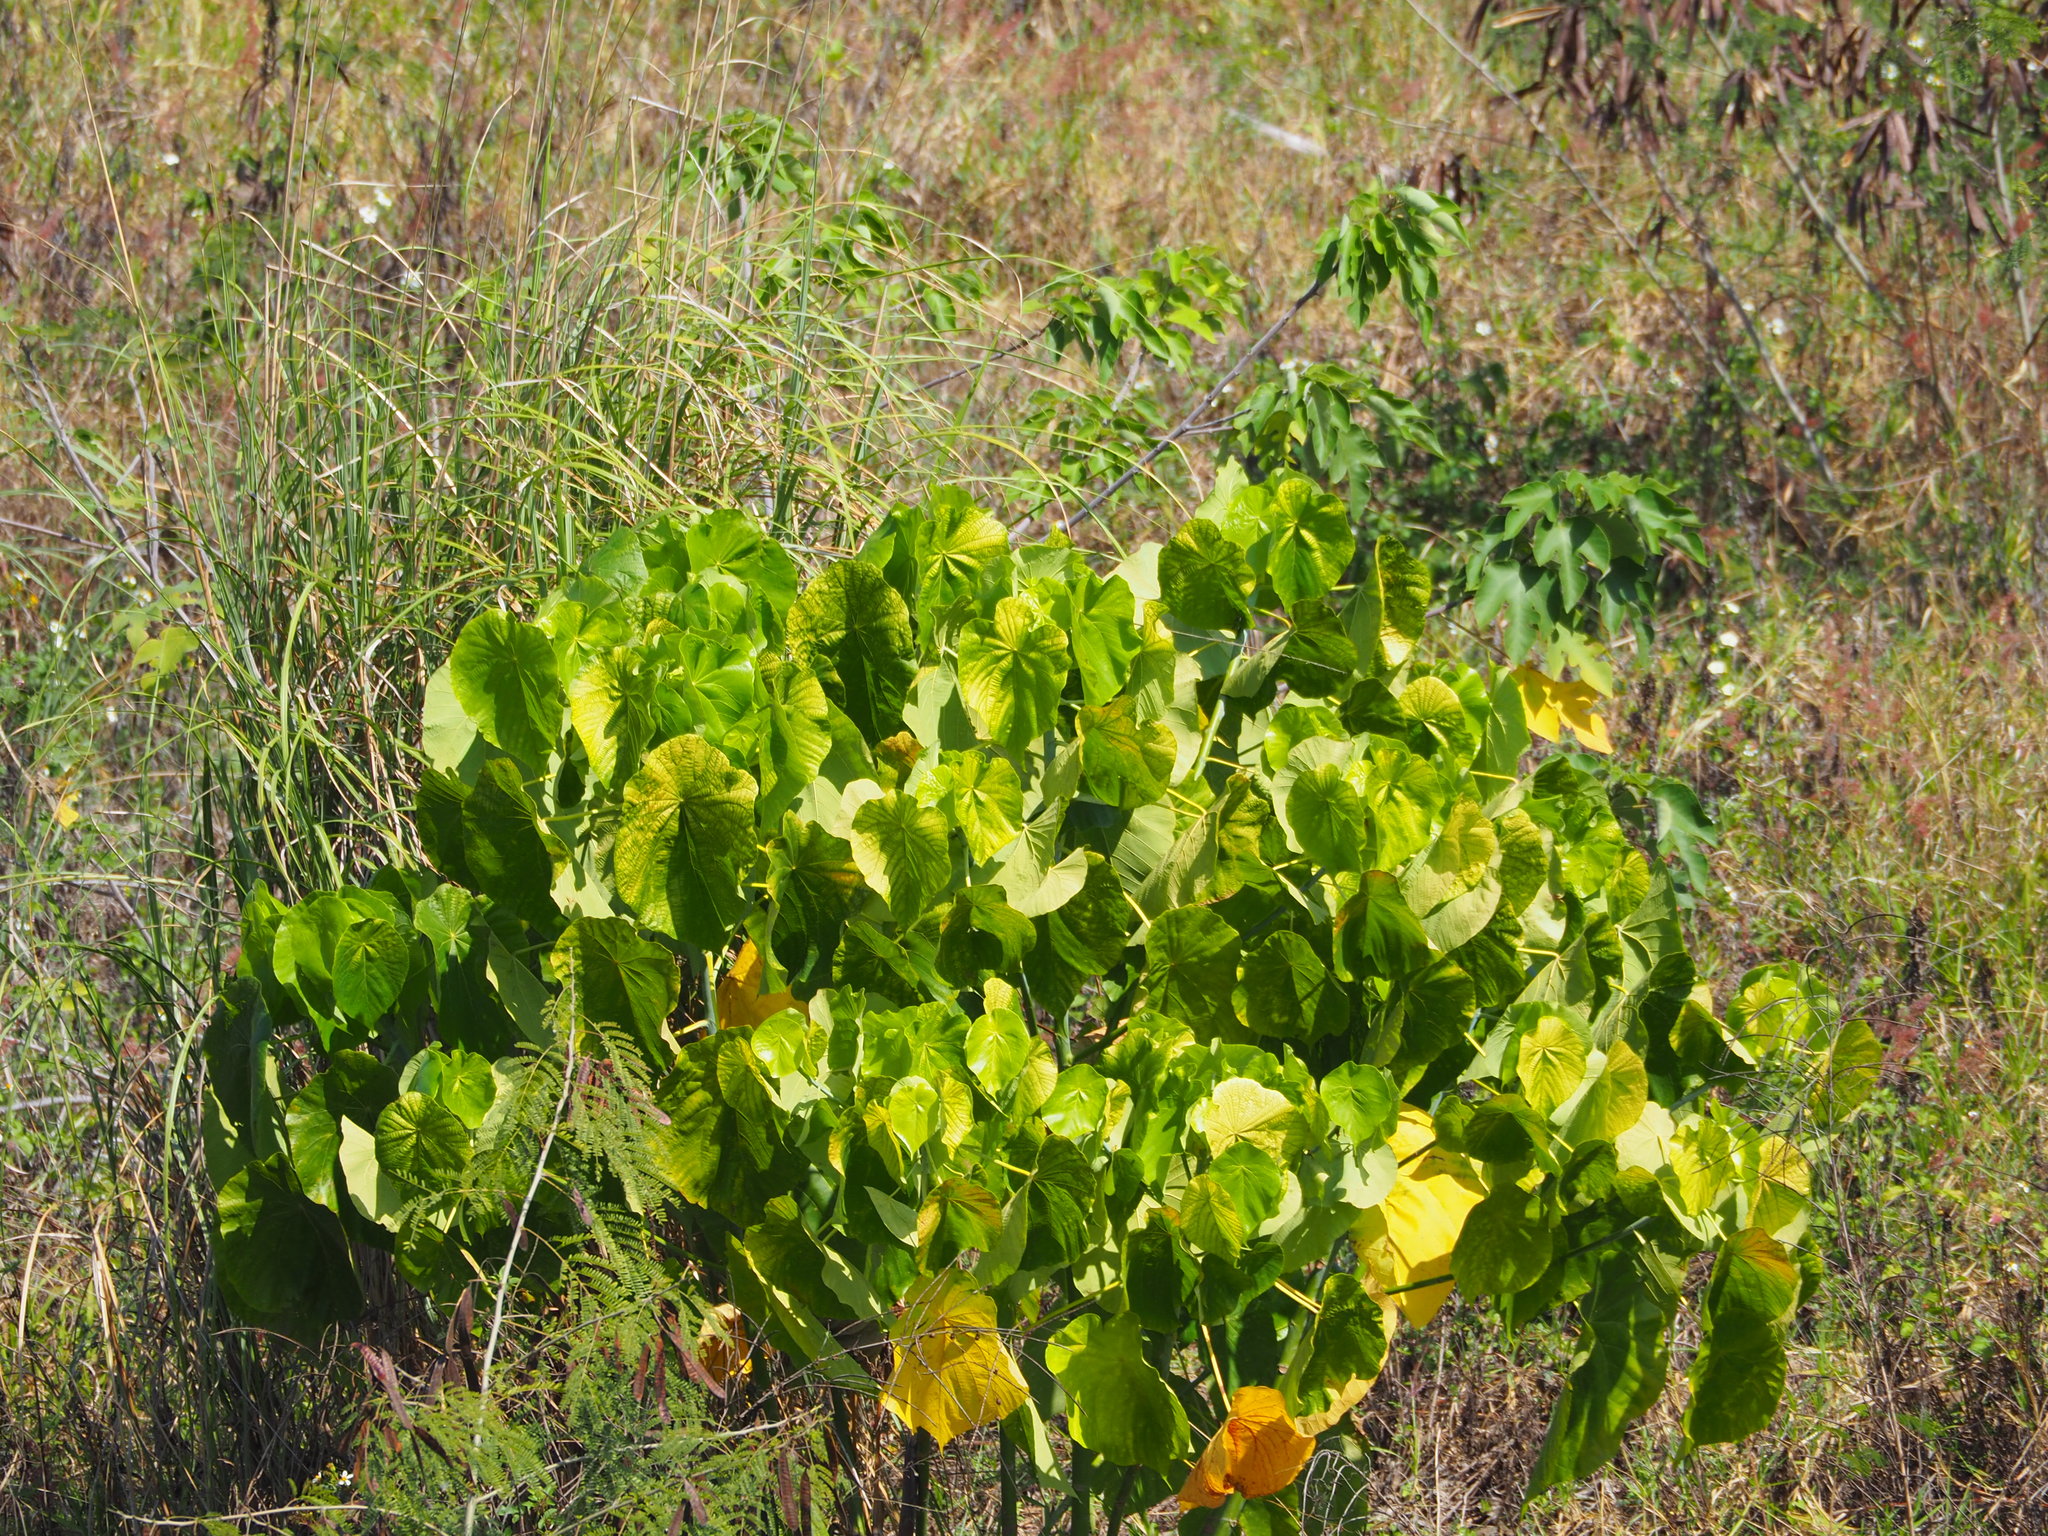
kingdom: Plantae
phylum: Tracheophyta
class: Magnoliopsida
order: Malpighiales
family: Euphorbiaceae
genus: Macaranga
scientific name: Macaranga tanarius
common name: Parasol leaf tree
